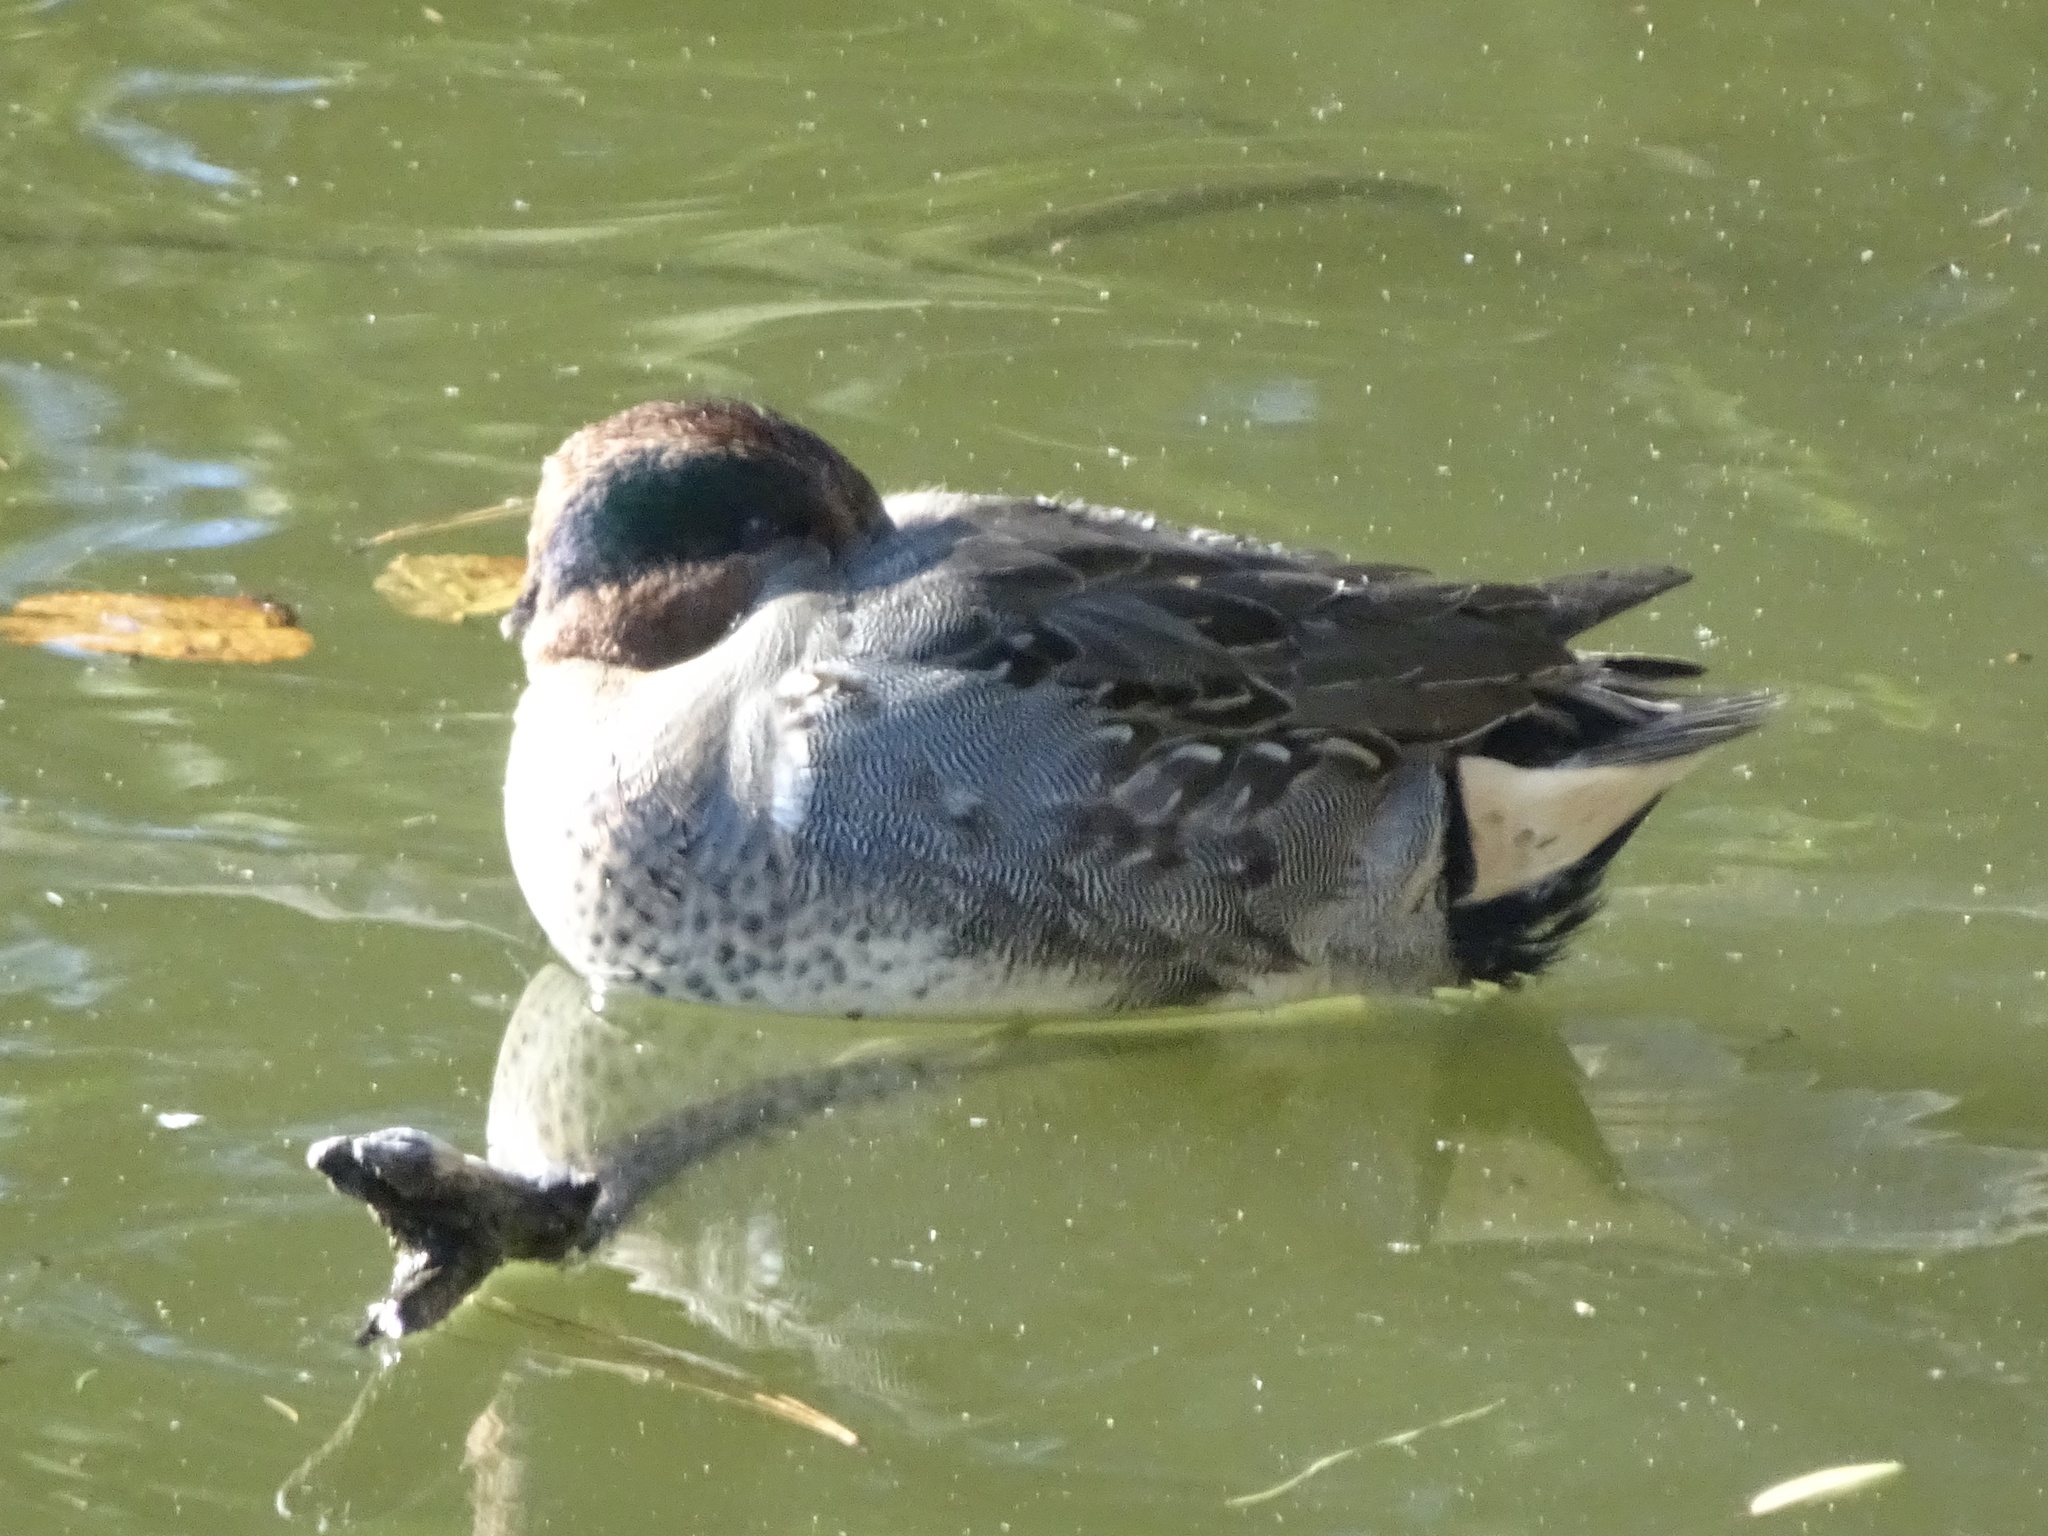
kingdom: Animalia
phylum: Chordata
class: Aves
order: Anseriformes
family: Anatidae
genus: Anas
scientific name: Anas crecca
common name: Eurasian teal
